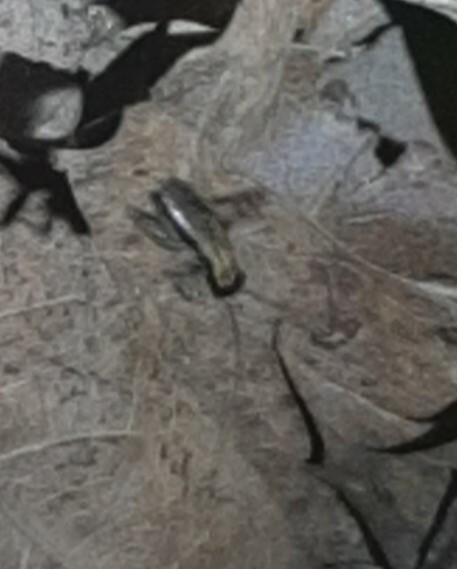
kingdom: Animalia
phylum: Arthropoda
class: Insecta
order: Orthoptera
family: Trigonidiidae
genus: Nemobius
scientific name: Nemobius sylvestris
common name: Wood-cricket
